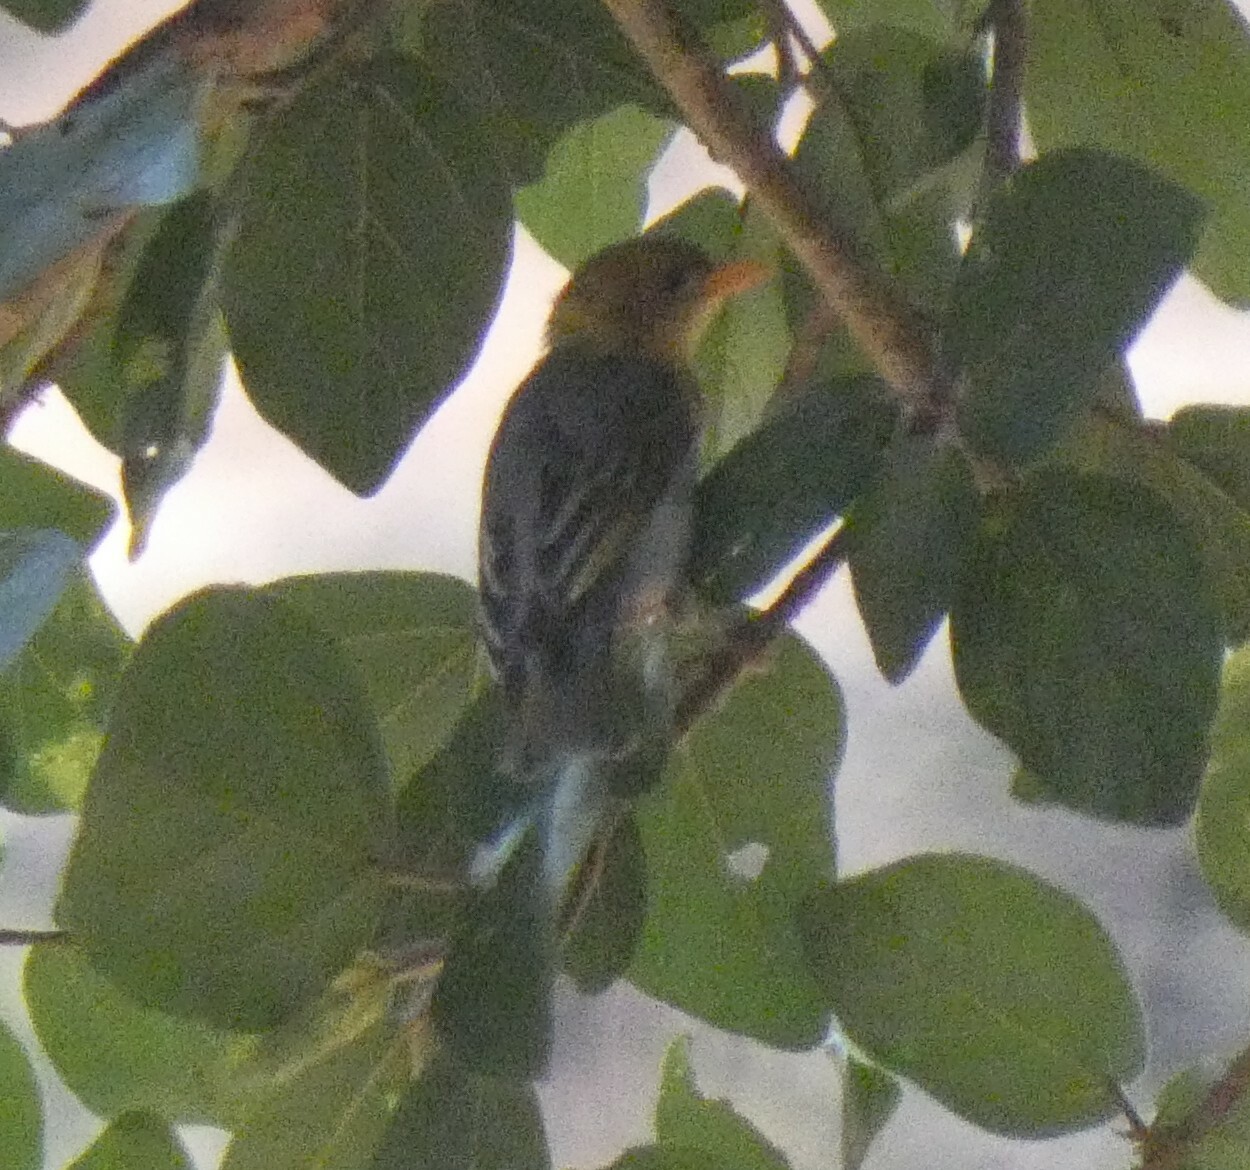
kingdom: Animalia
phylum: Chordata
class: Aves
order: Passeriformes
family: Ploceidae
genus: Anaplectes
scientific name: Anaplectes rubriceps
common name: Red-headed weaver
